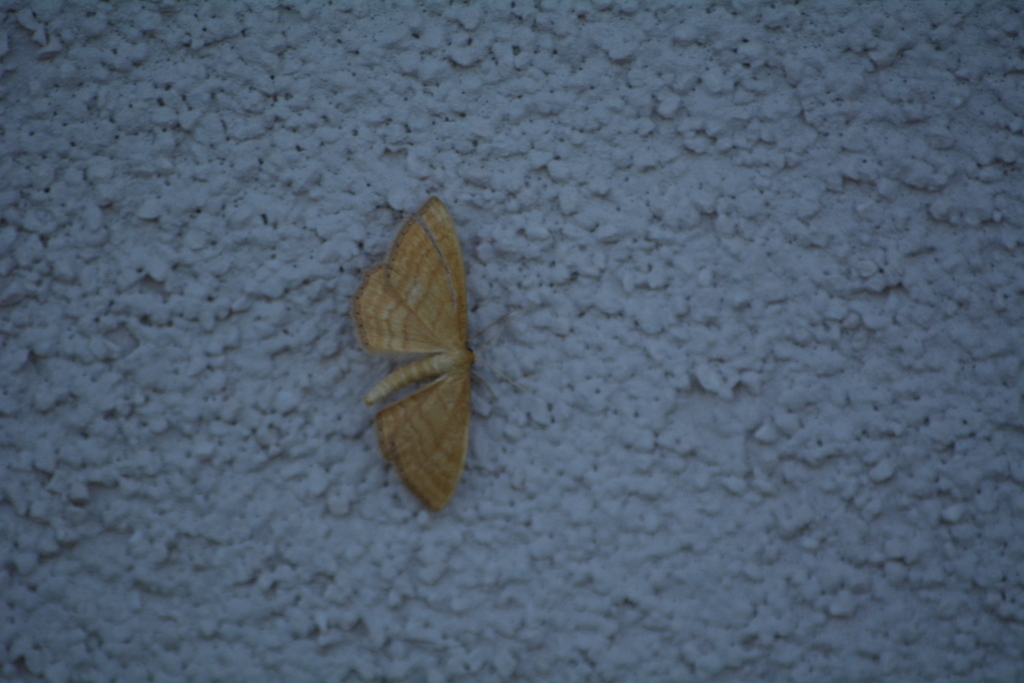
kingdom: Animalia
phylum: Arthropoda
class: Insecta
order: Lepidoptera
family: Geometridae
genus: Idaea
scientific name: Idaea ochrata
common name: Bright wave
